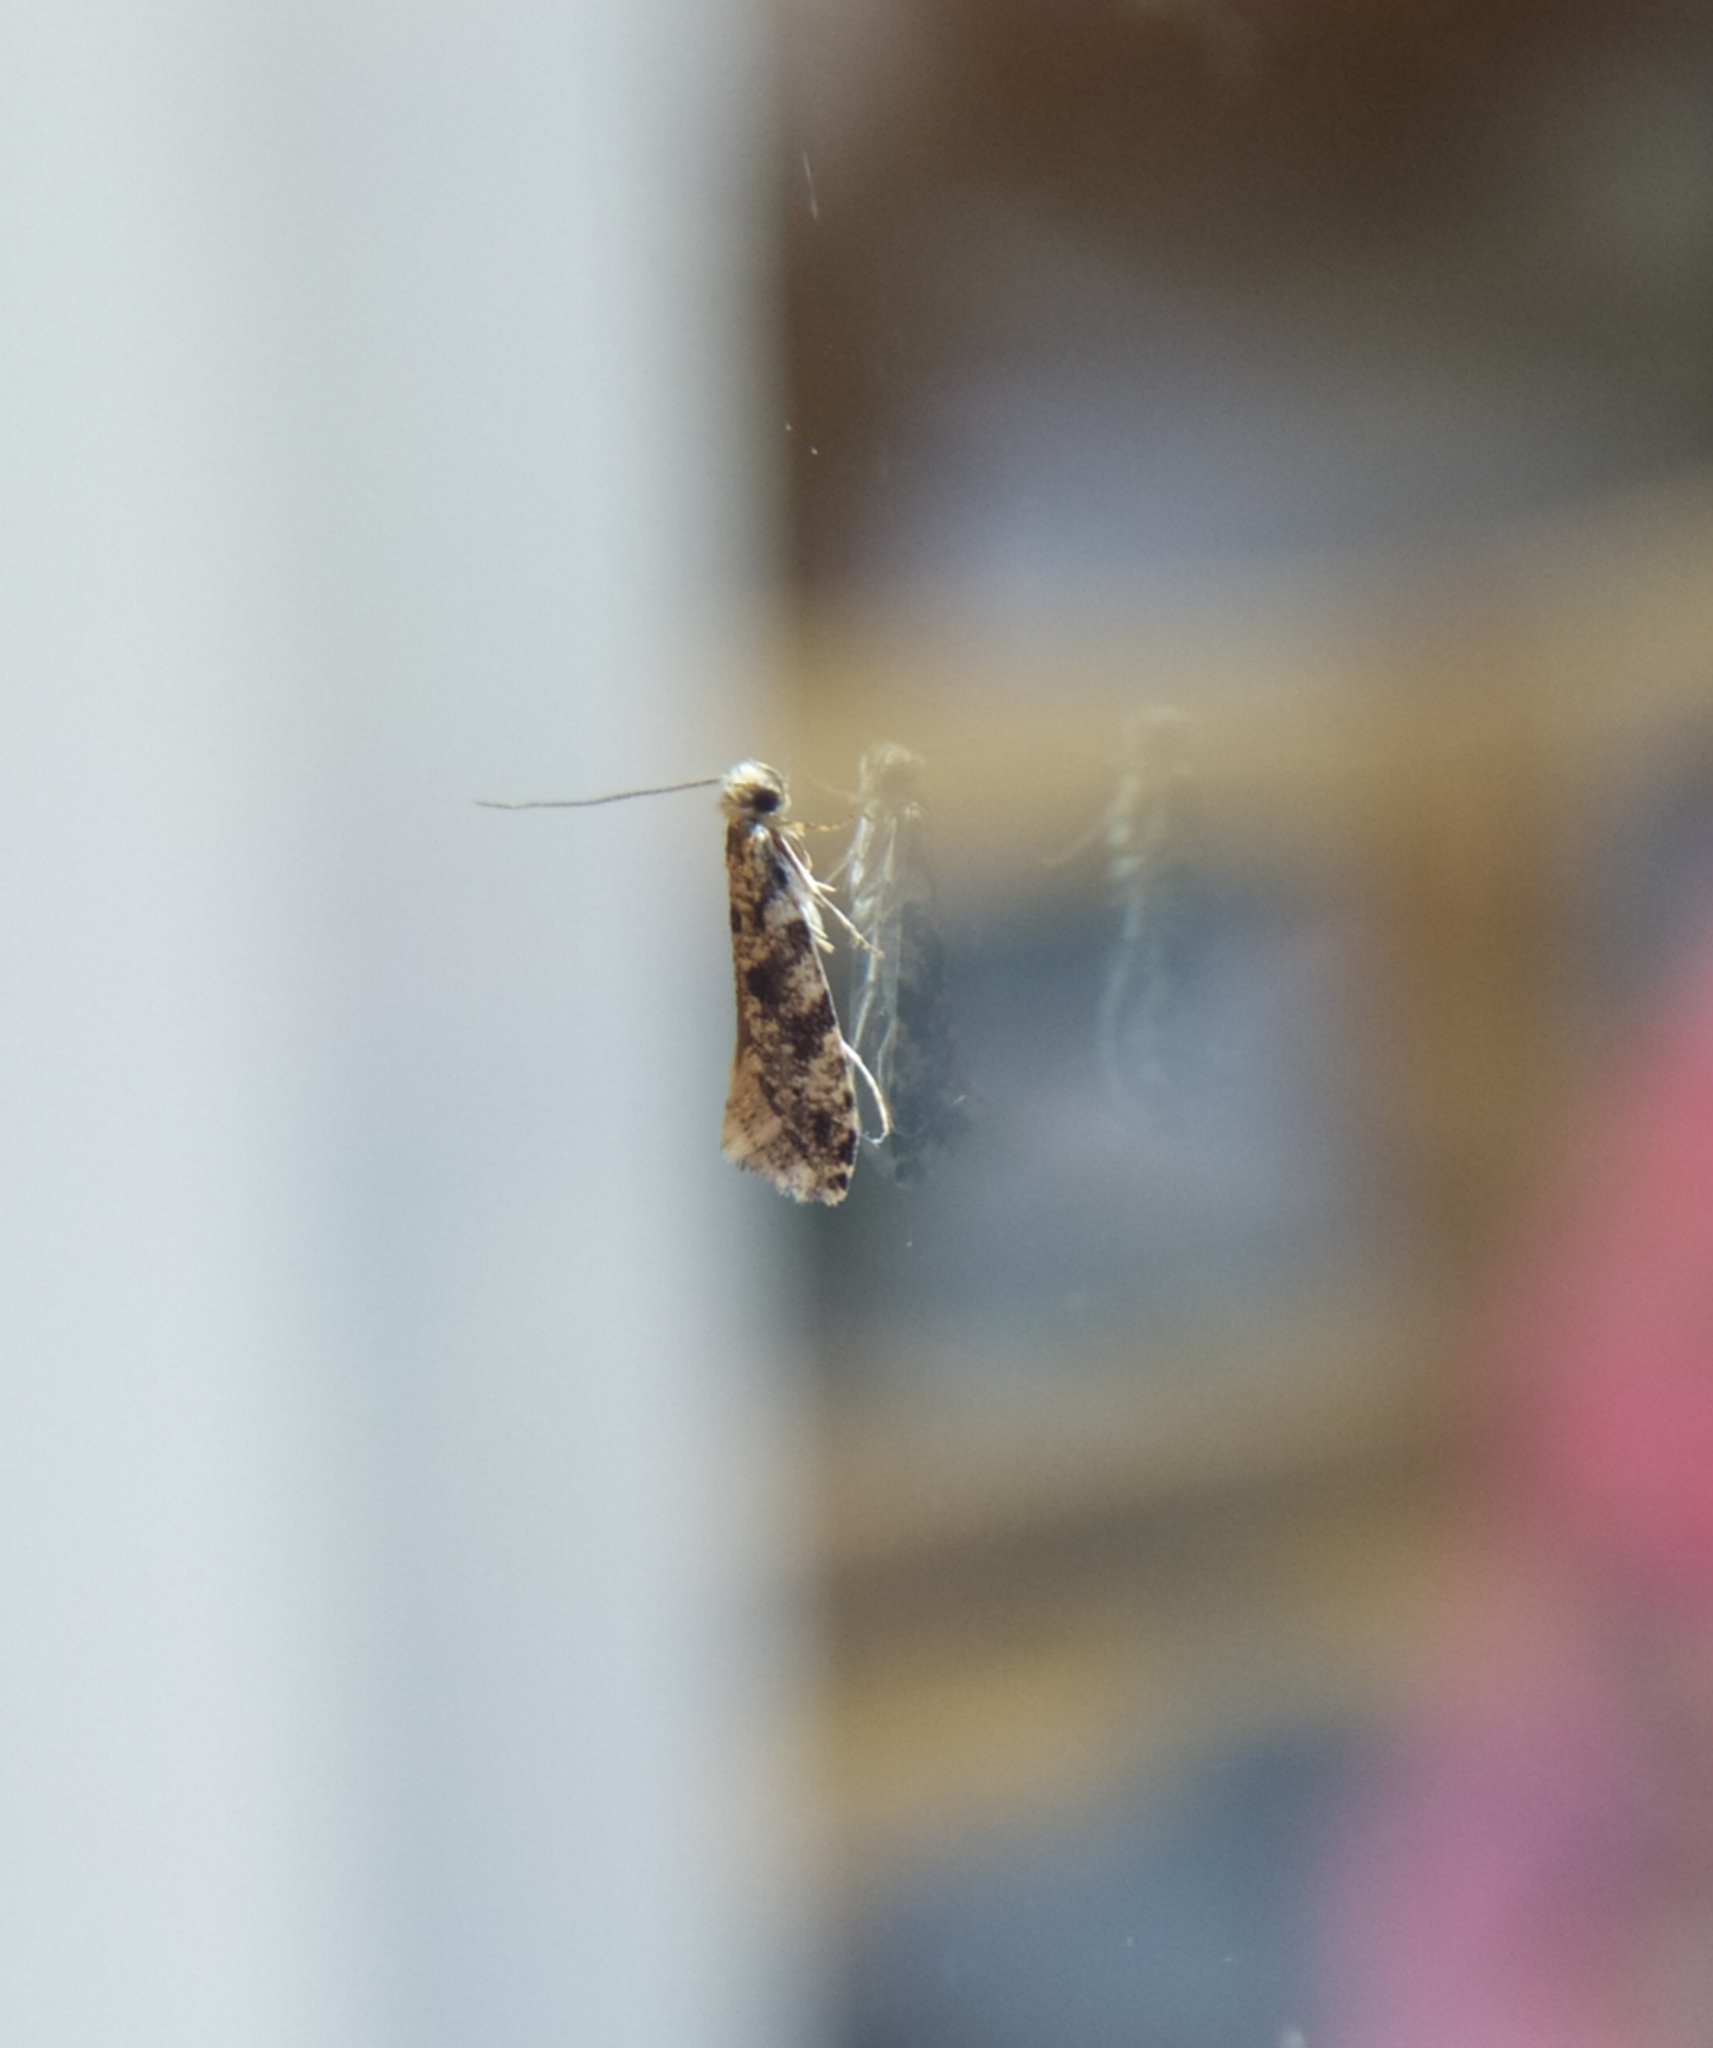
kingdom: Animalia
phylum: Arthropoda
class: Insecta
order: Lepidoptera
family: Tineidae
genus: Nemapogon
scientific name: Nemapogon granella
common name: European grain moth
